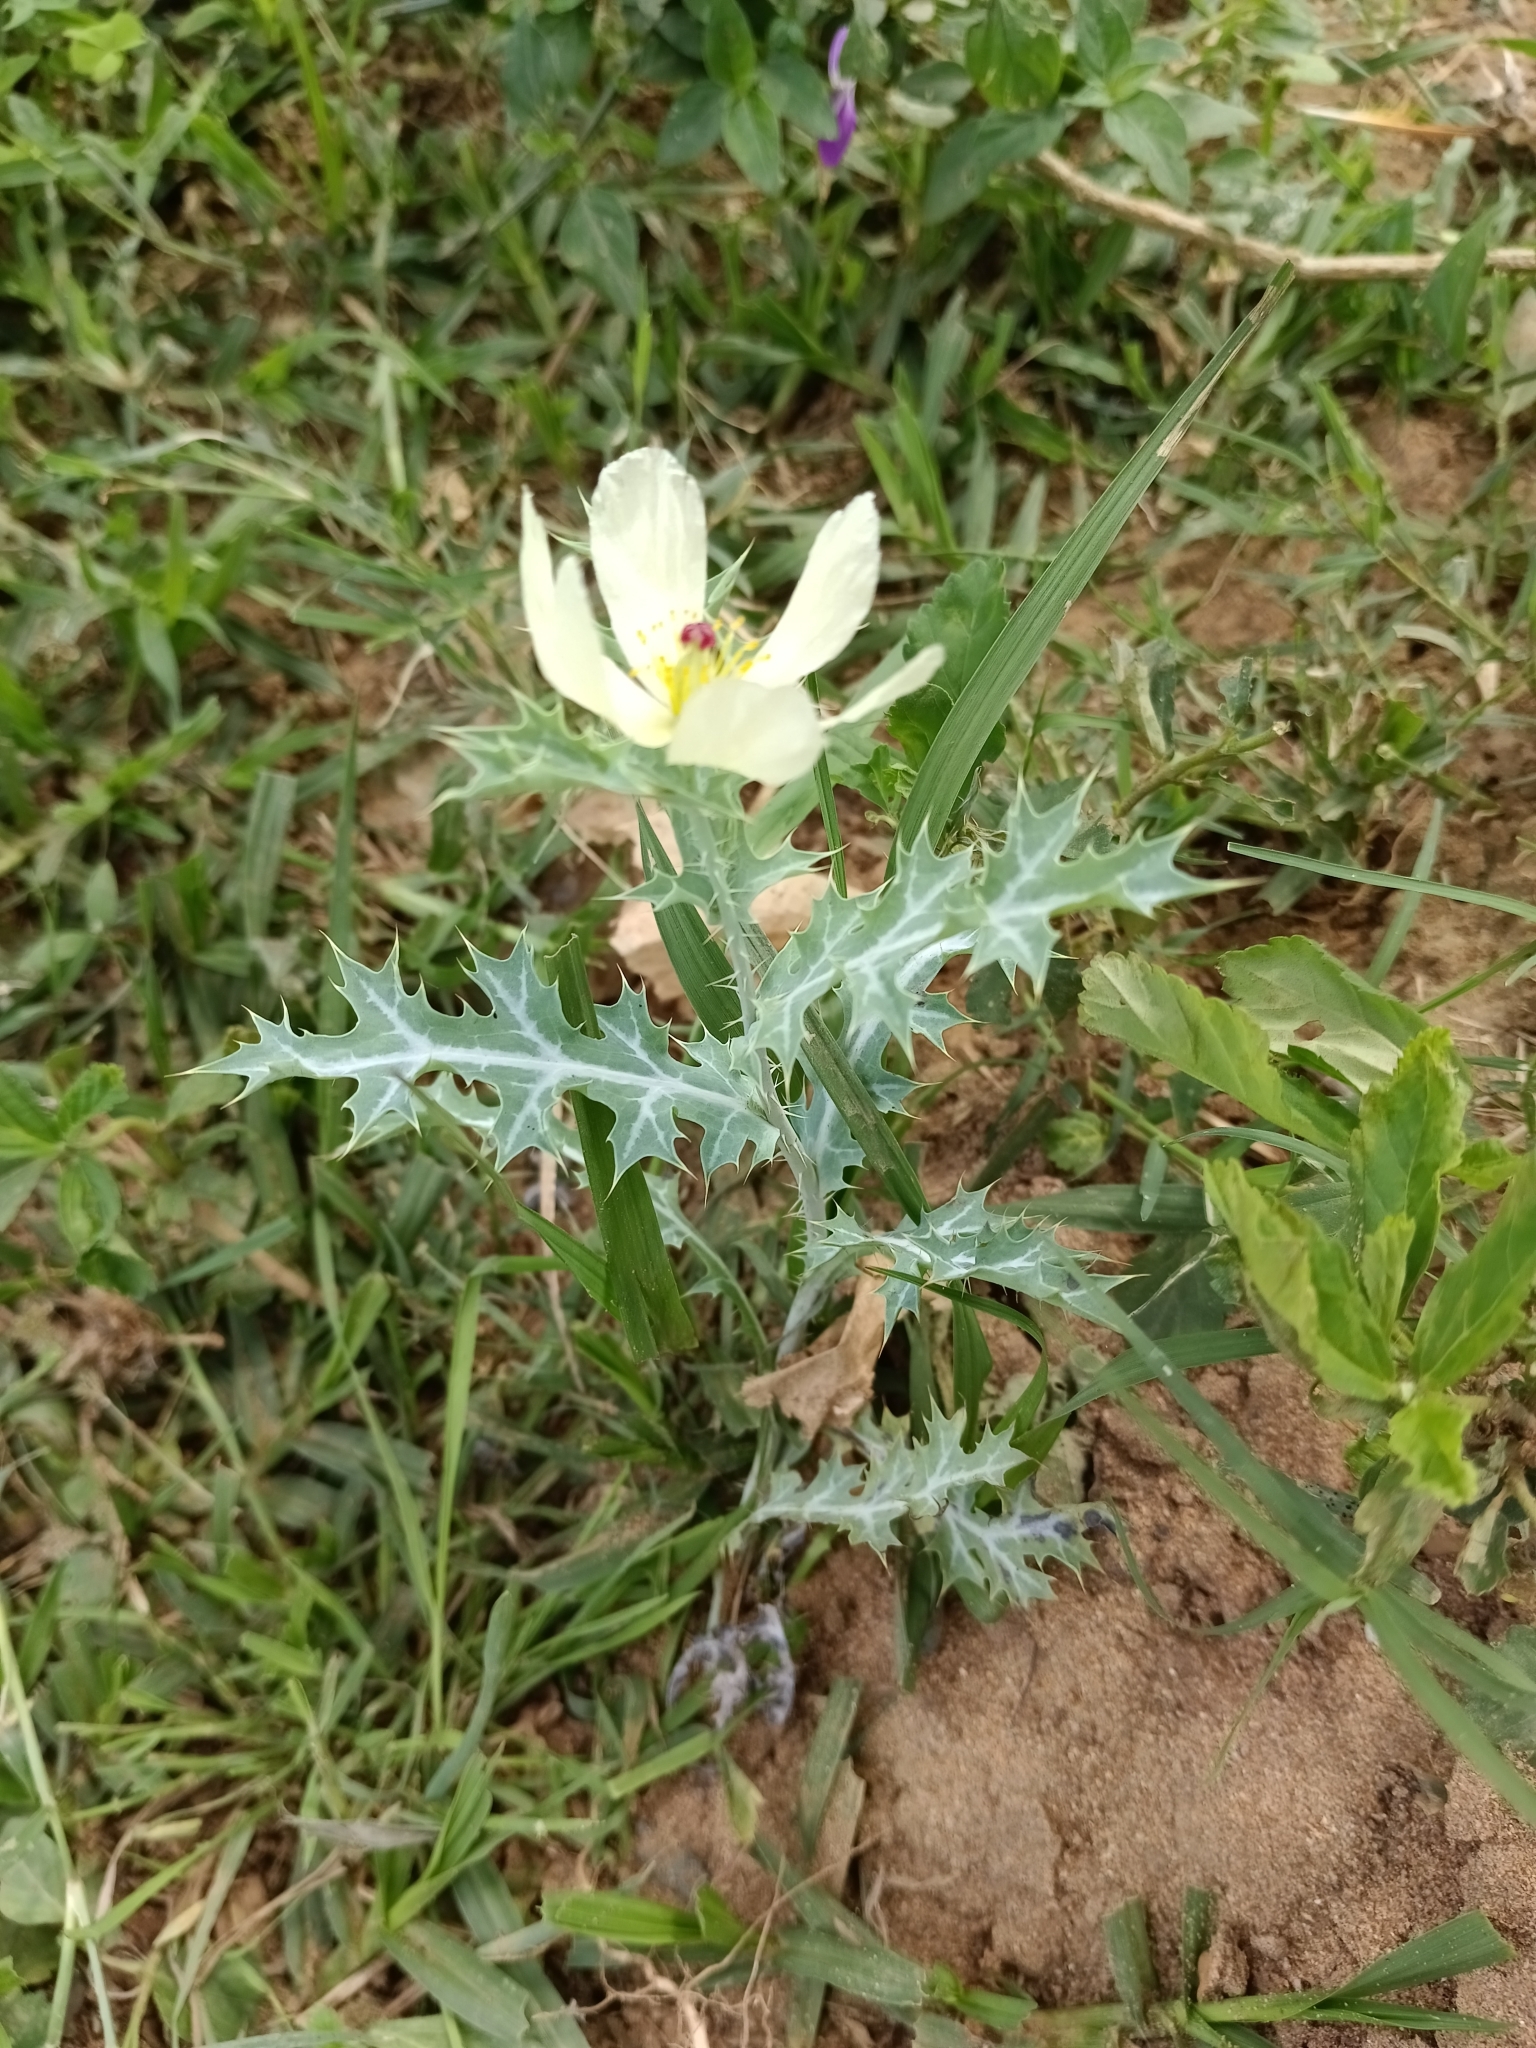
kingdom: Plantae
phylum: Tracheophyta
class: Magnoliopsida
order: Ranunculales
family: Papaveraceae
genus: Argemone
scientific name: Argemone ochroleuca
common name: White-flower mexican-poppy
